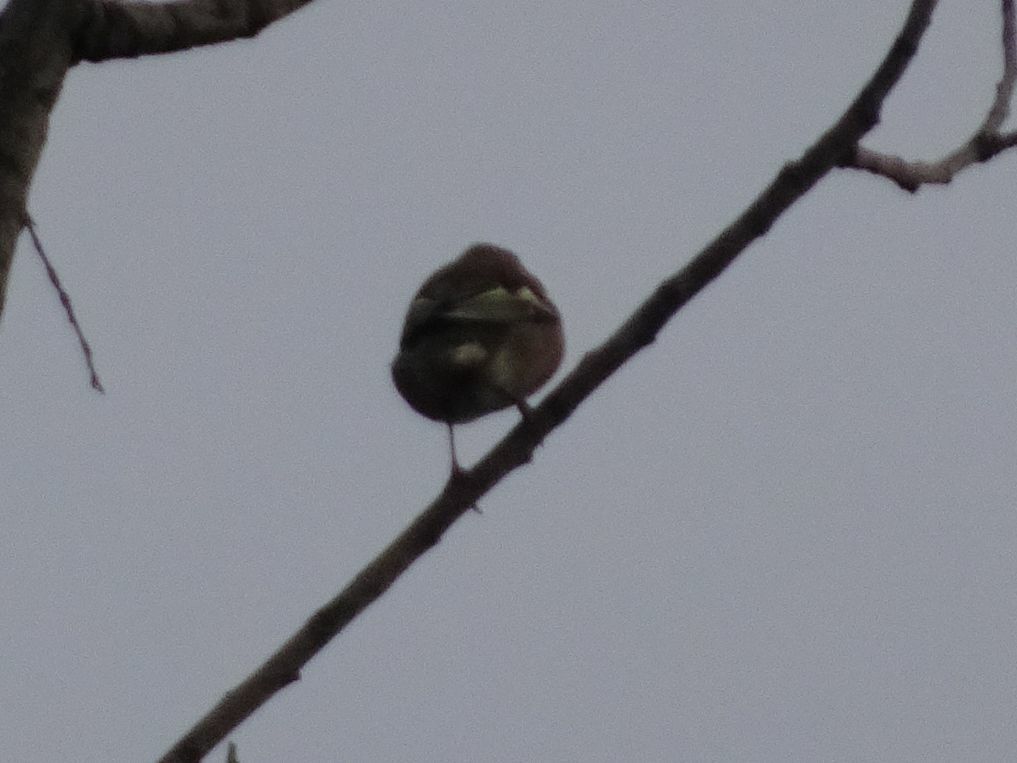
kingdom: Animalia
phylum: Chordata
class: Aves
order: Passeriformes
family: Fringillidae
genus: Fringilla
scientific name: Fringilla coelebs
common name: Common chaffinch
